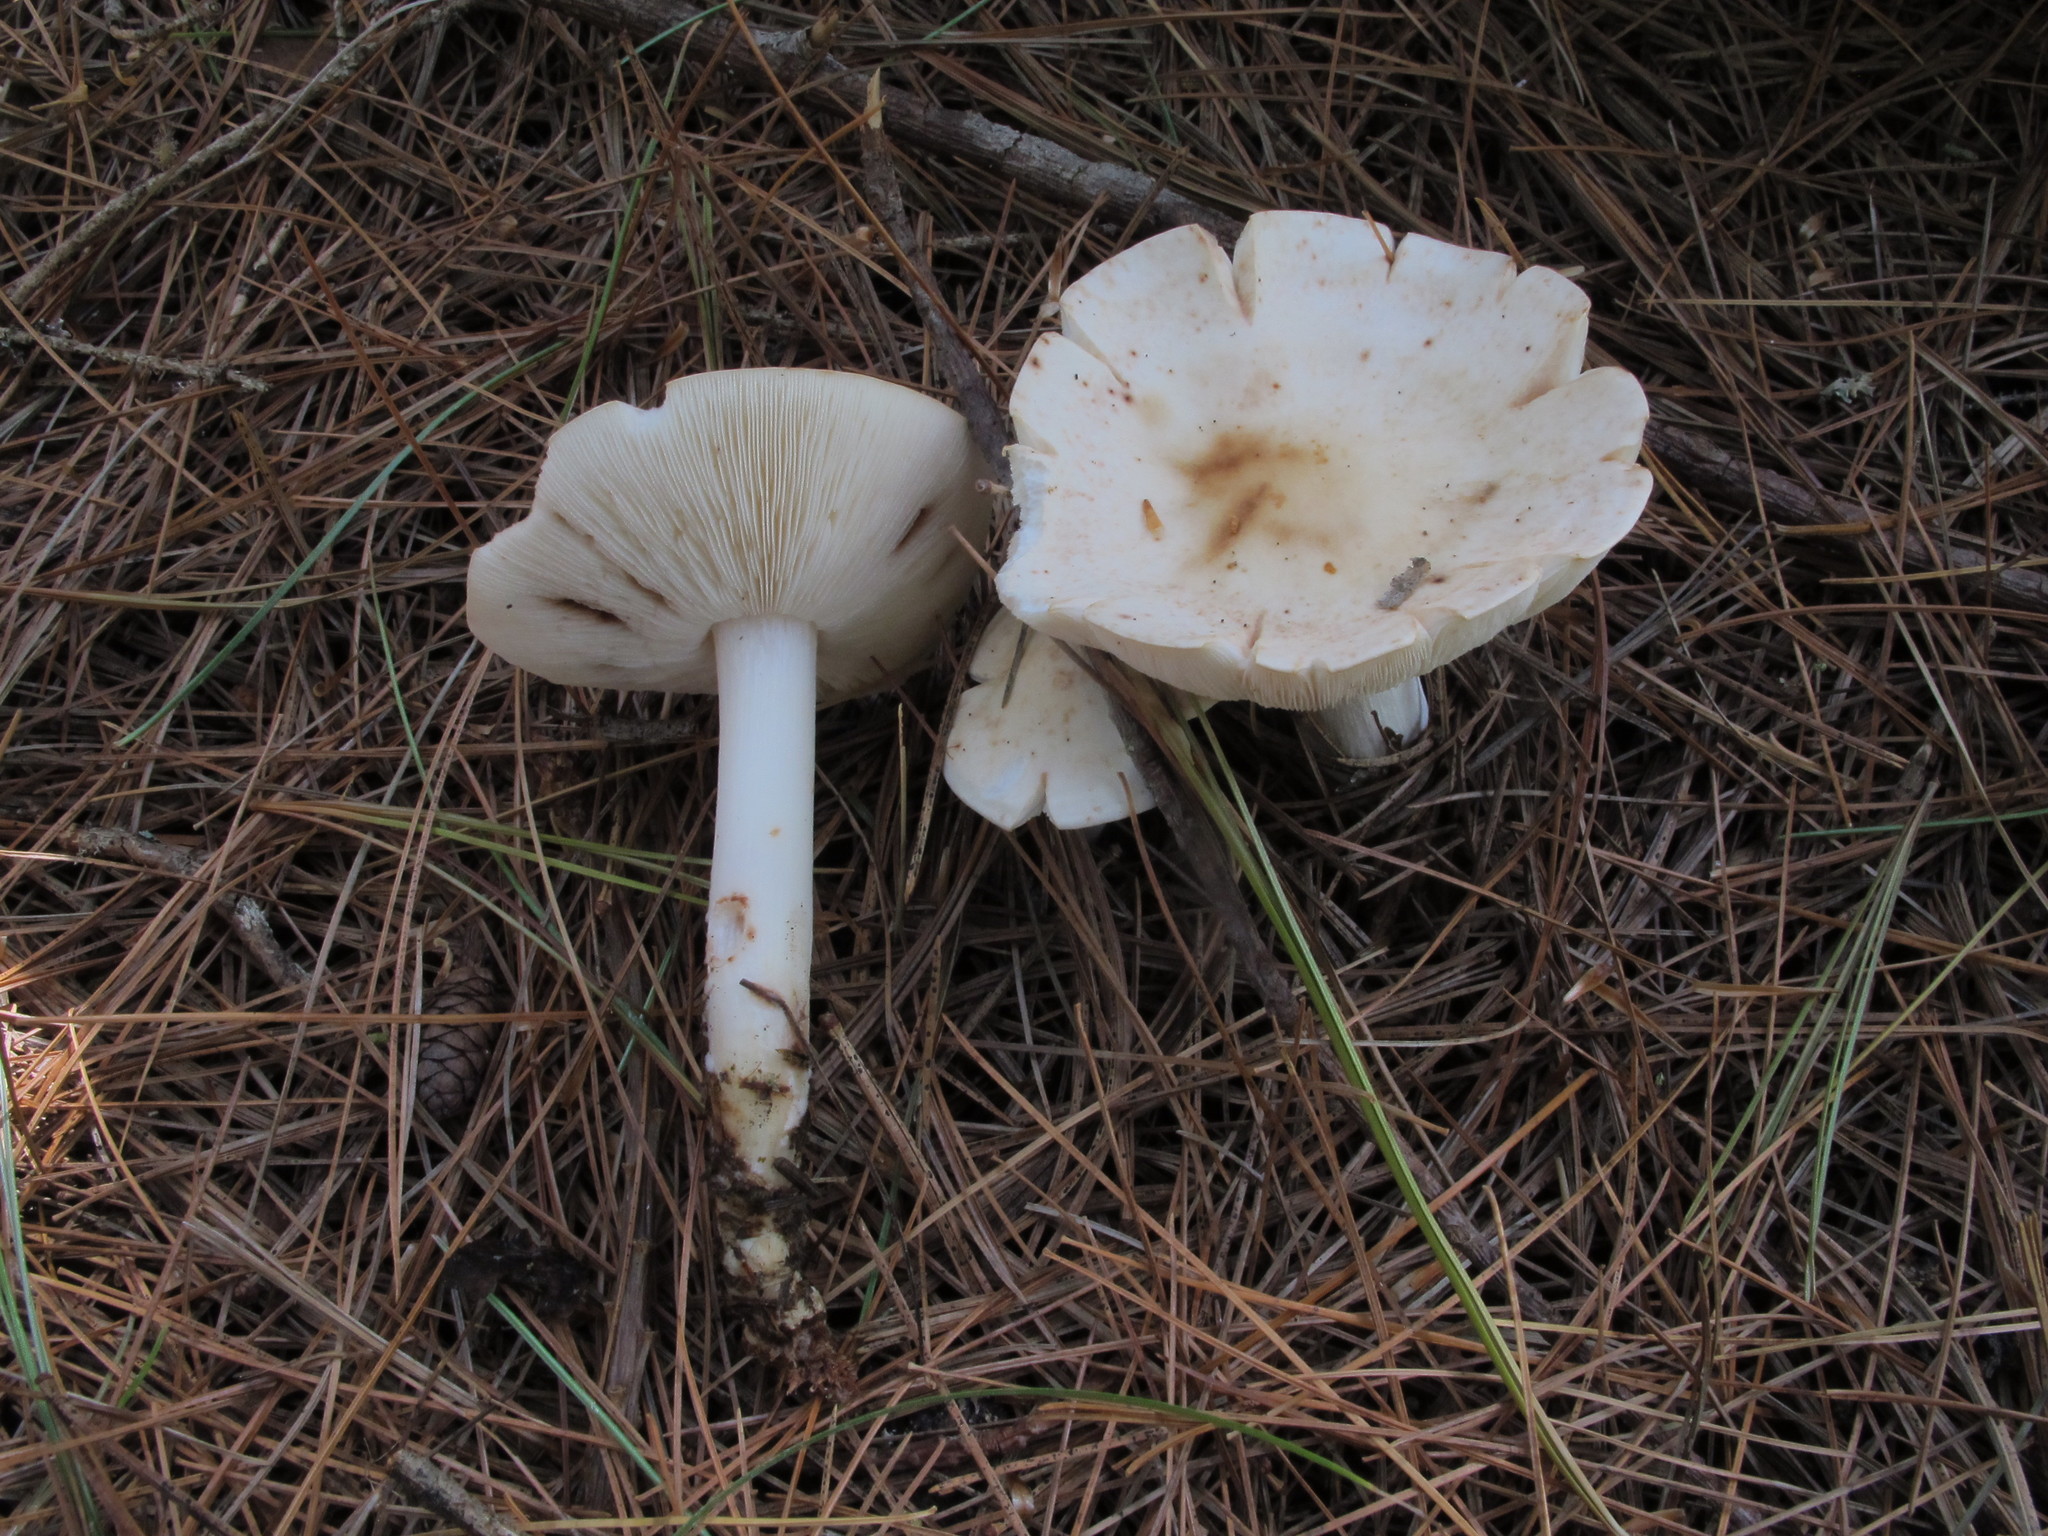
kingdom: Fungi
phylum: Basidiomycota
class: Agaricomycetes
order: Agaricales
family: Omphalotaceae
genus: Rhodocollybia
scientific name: Rhodocollybia maculata
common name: Spotted tough-shank
